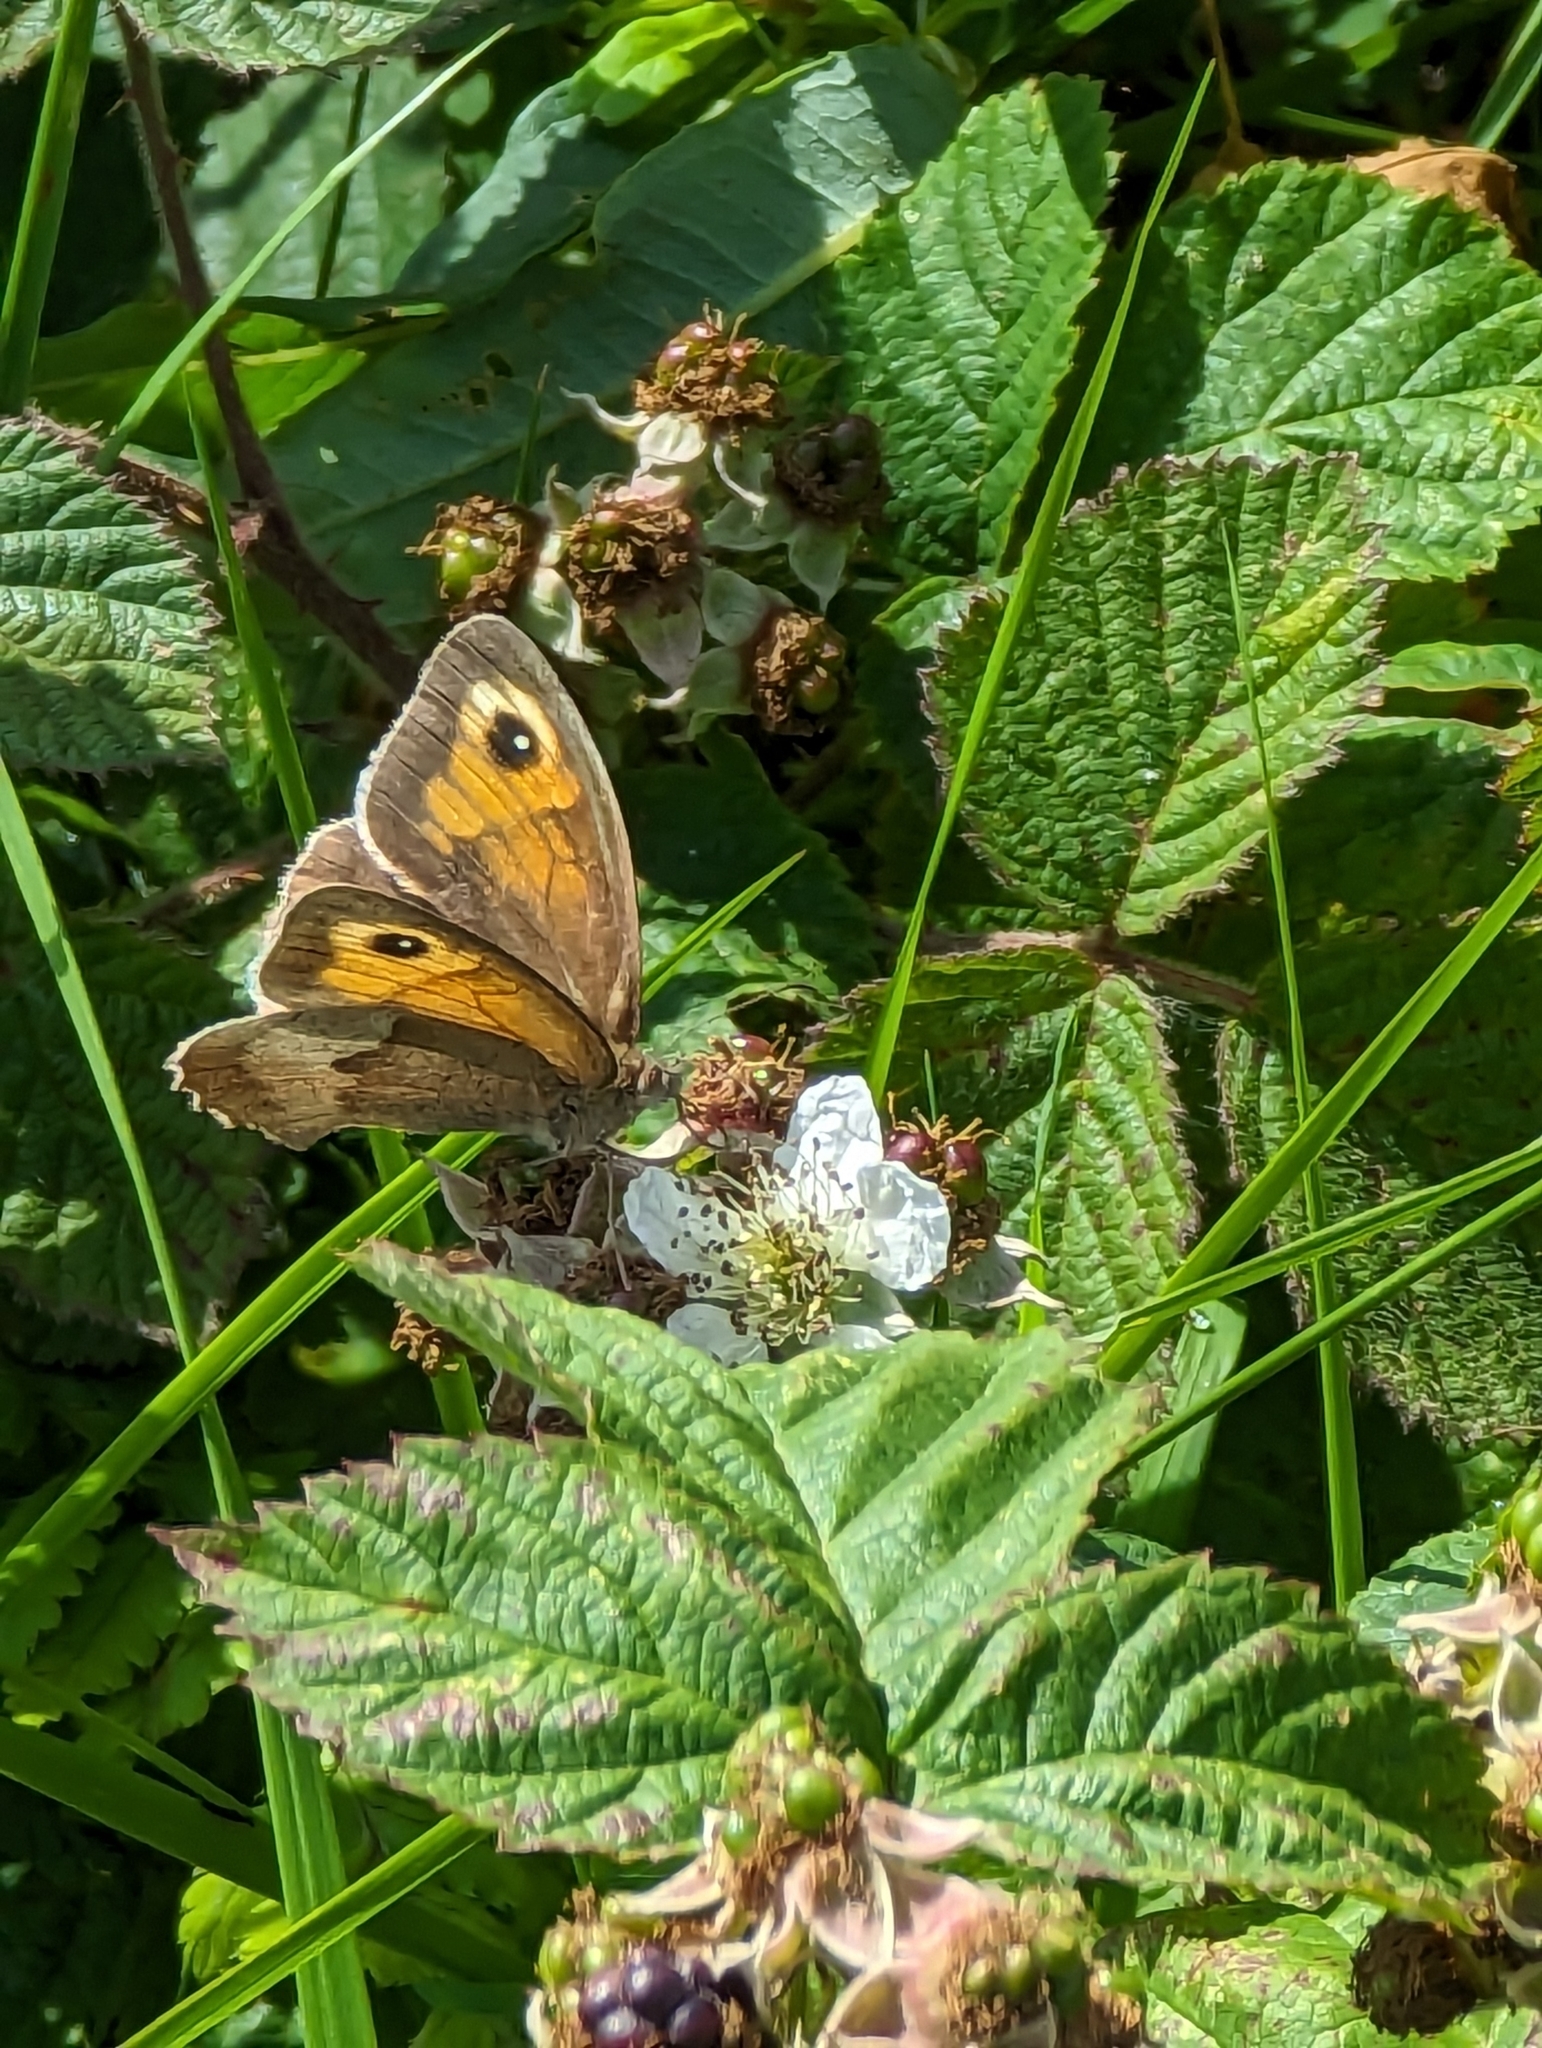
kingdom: Animalia
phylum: Arthropoda
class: Insecta
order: Lepidoptera
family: Nymphalidae
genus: Maniola
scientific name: Maniola jurtina
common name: Meadow brown
